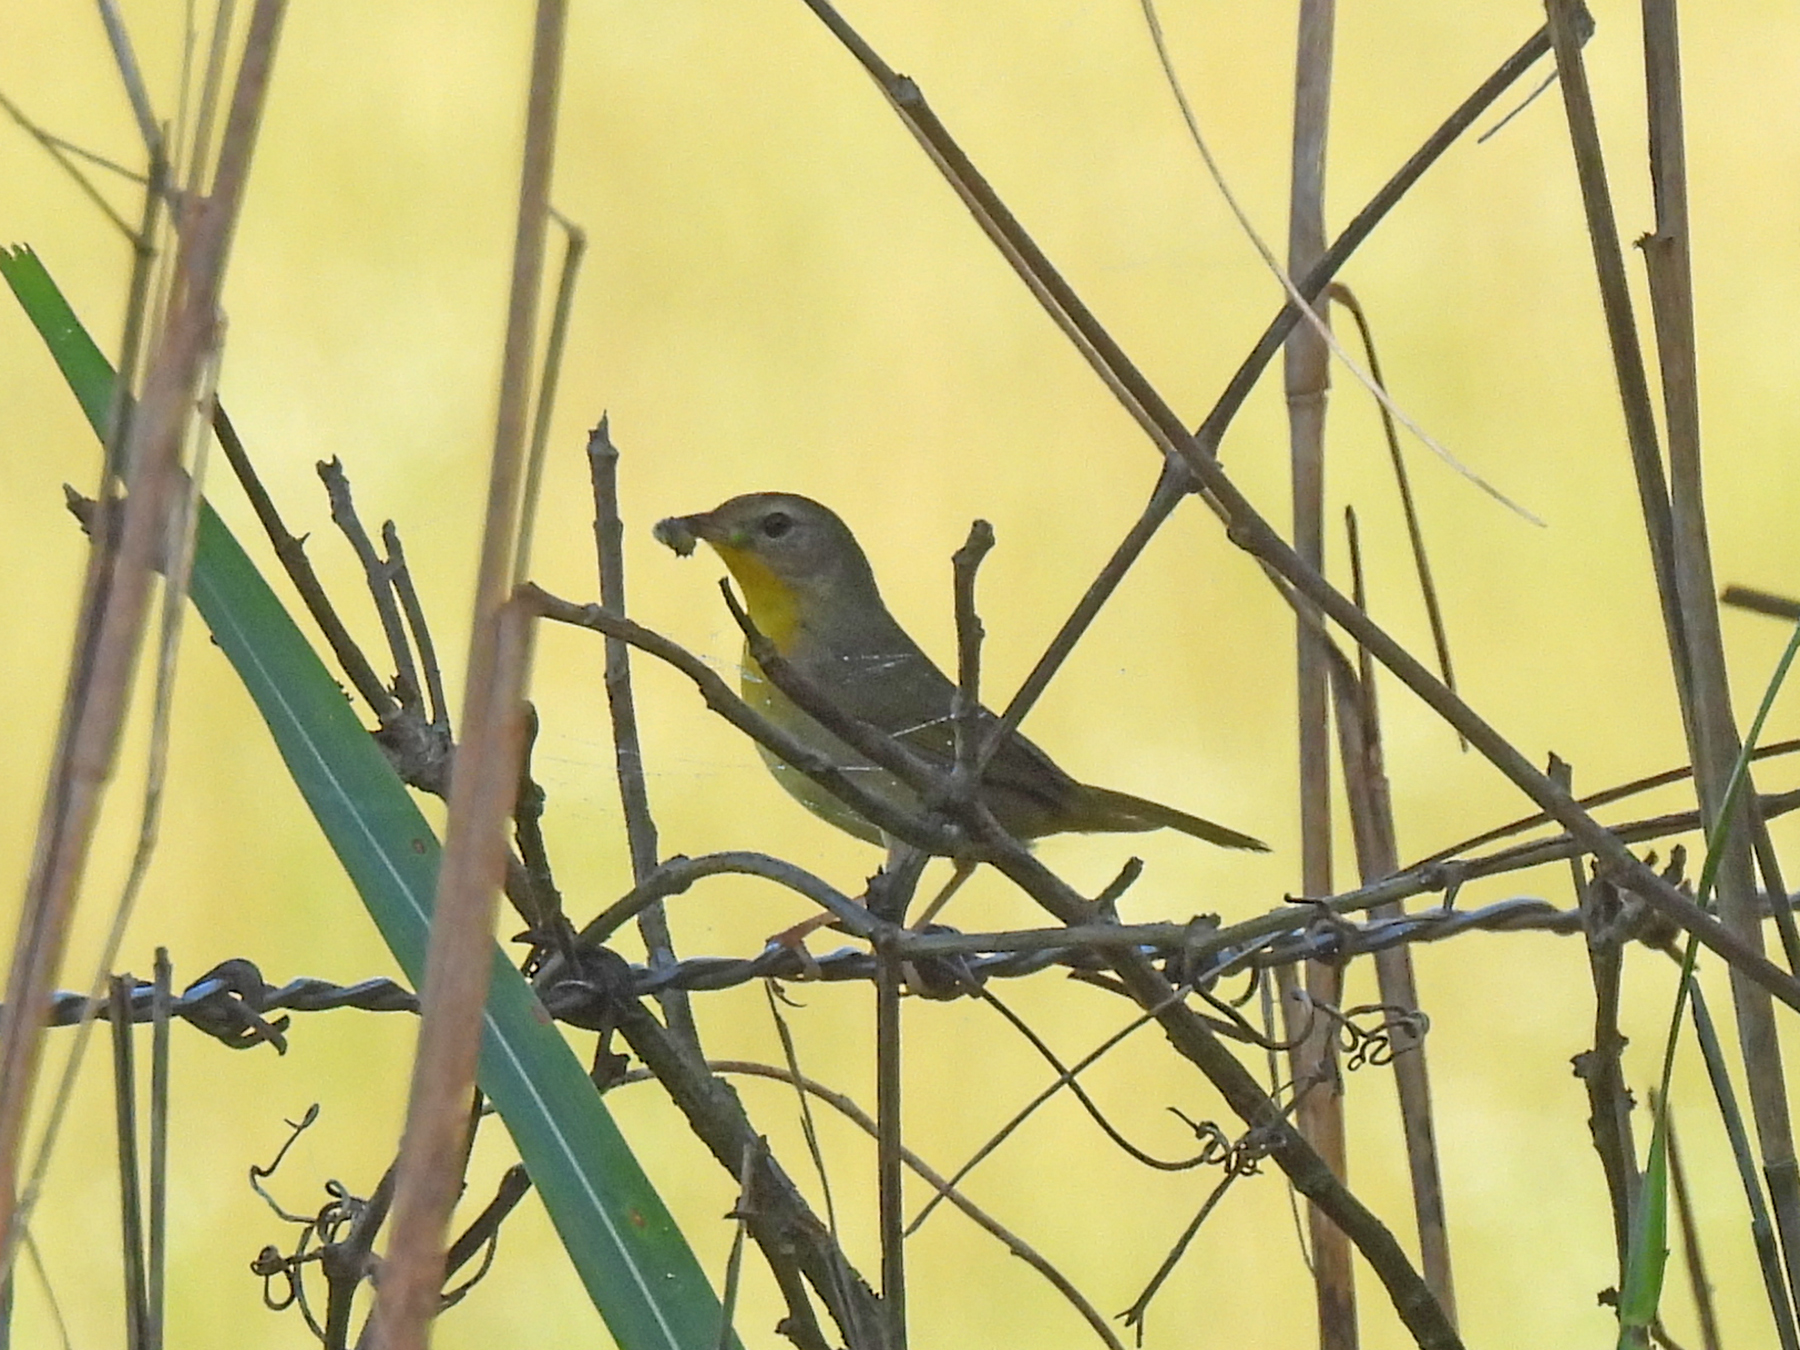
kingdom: Animalia
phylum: Chordata
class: Aves
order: Passeriformes
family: Parulidae
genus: Geothlypis
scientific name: Geothlypis trichas
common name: Common yellowthroat
